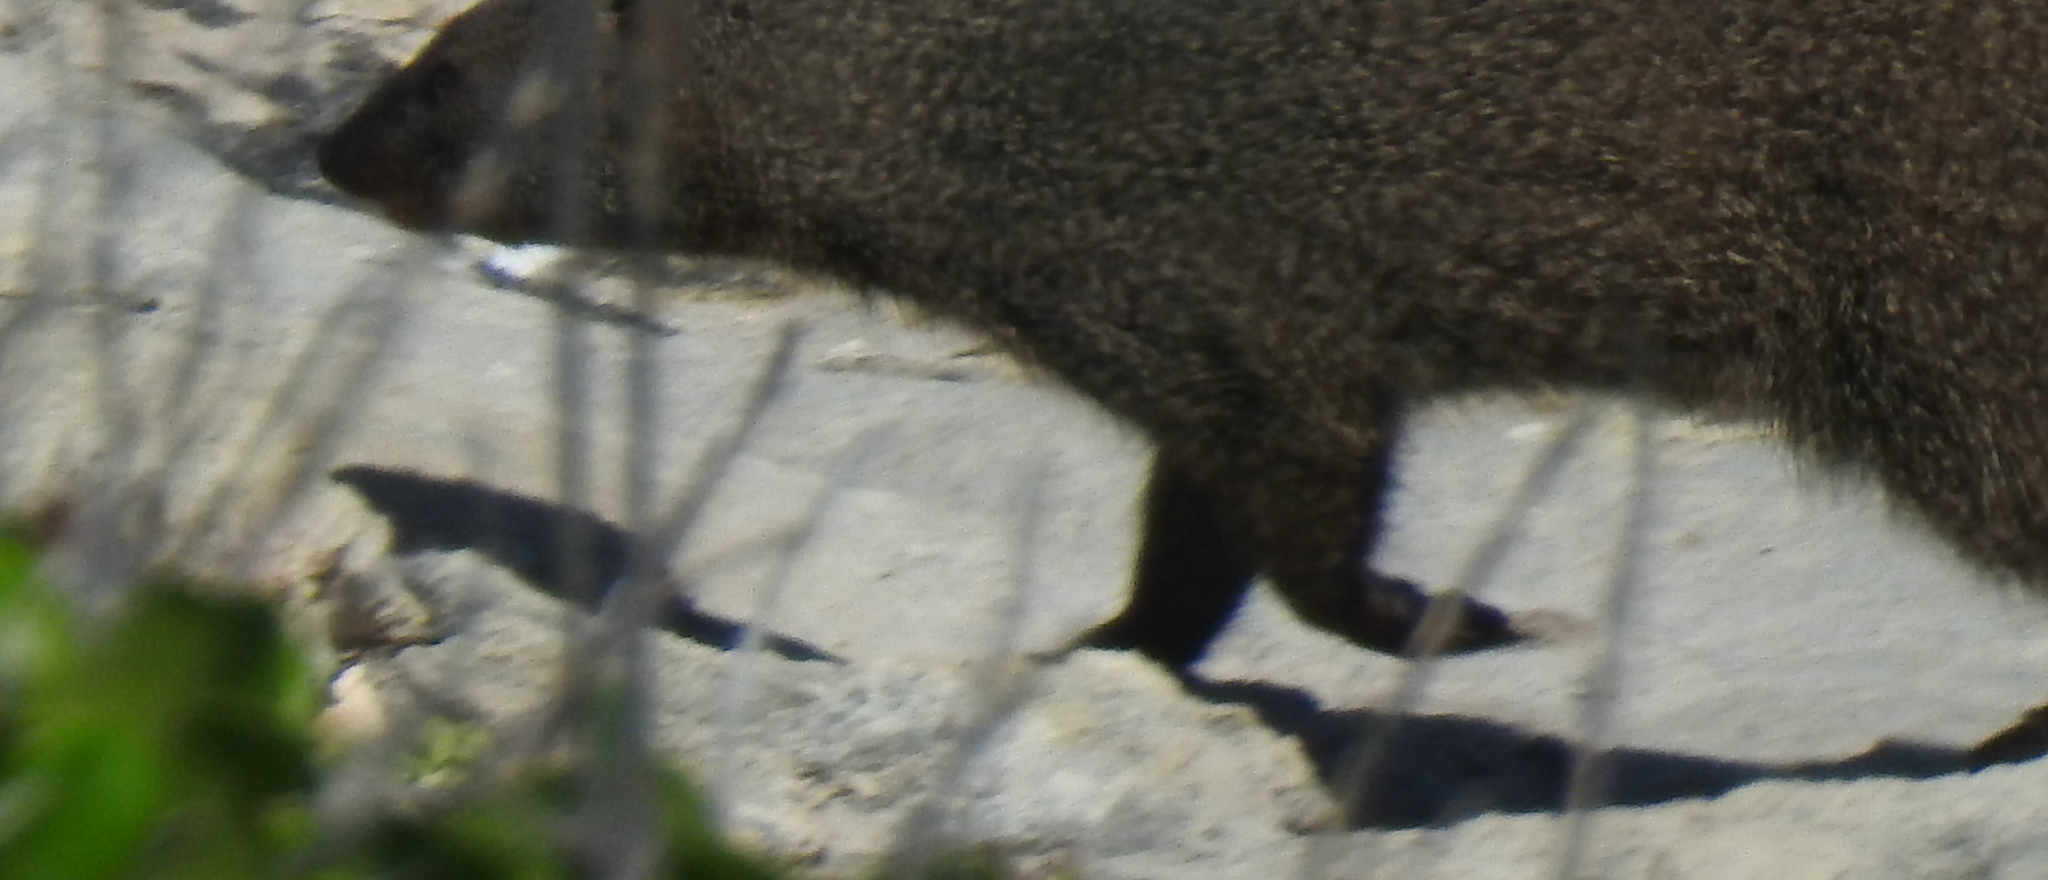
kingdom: Animalia
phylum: Chordata
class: Mammalia
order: Carnivora
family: Herpestidae
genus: Galerella
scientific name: Galerella pulverulenta
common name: Cape gray mongoose
